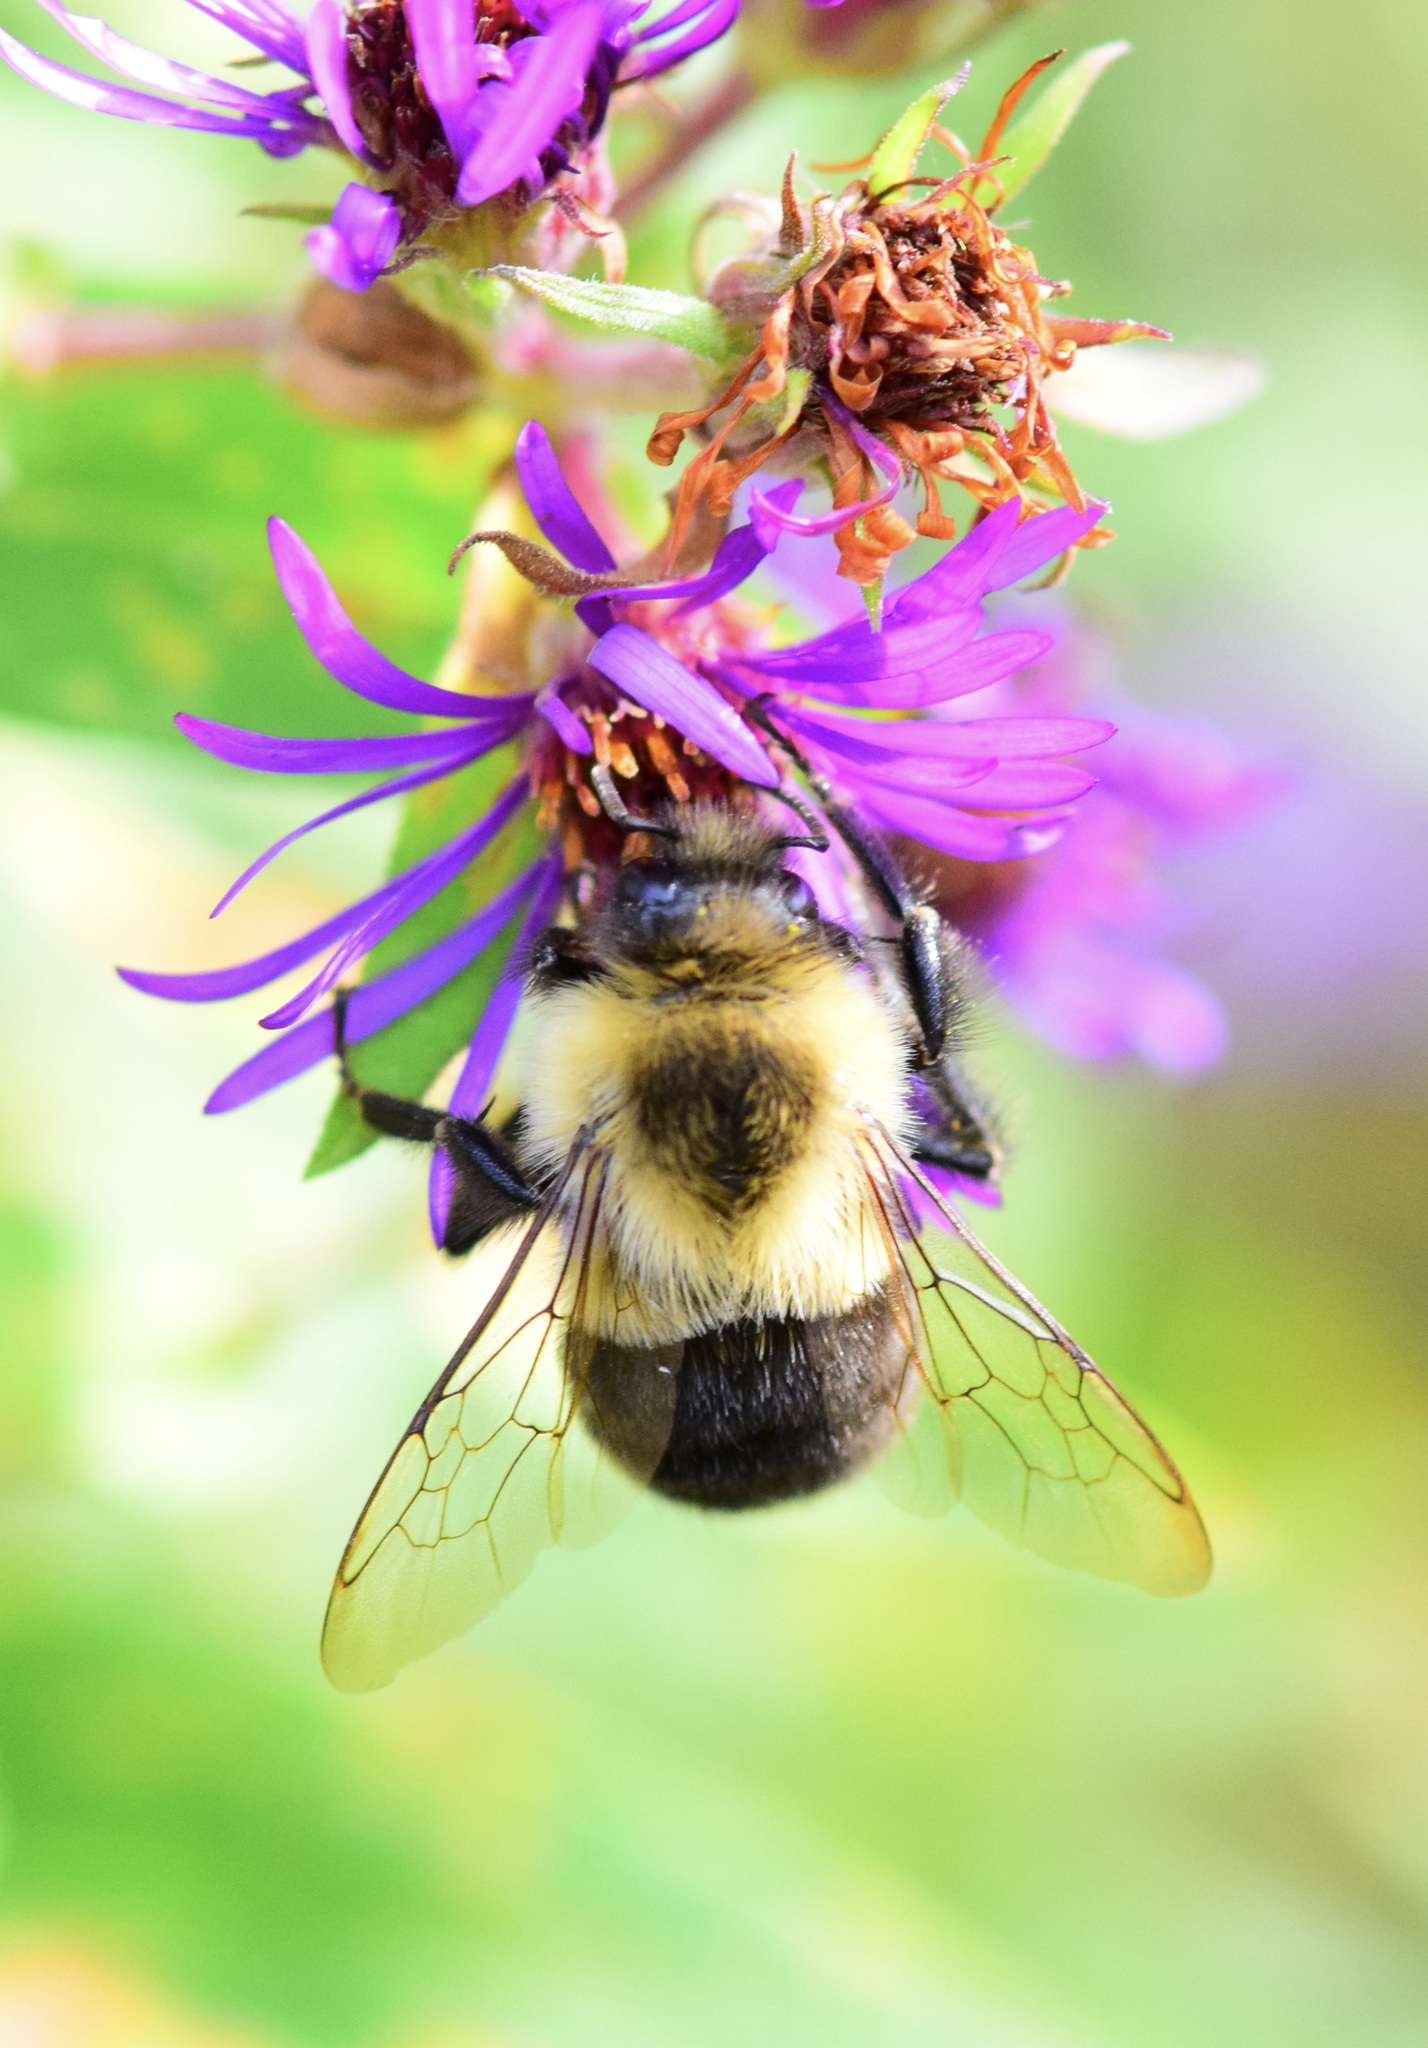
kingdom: Animalia
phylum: Arthropoda
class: Insecta
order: Hymenoptera
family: Apidae
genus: Bombus
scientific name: Bombus impatiens
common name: Common eastern bumble bee
